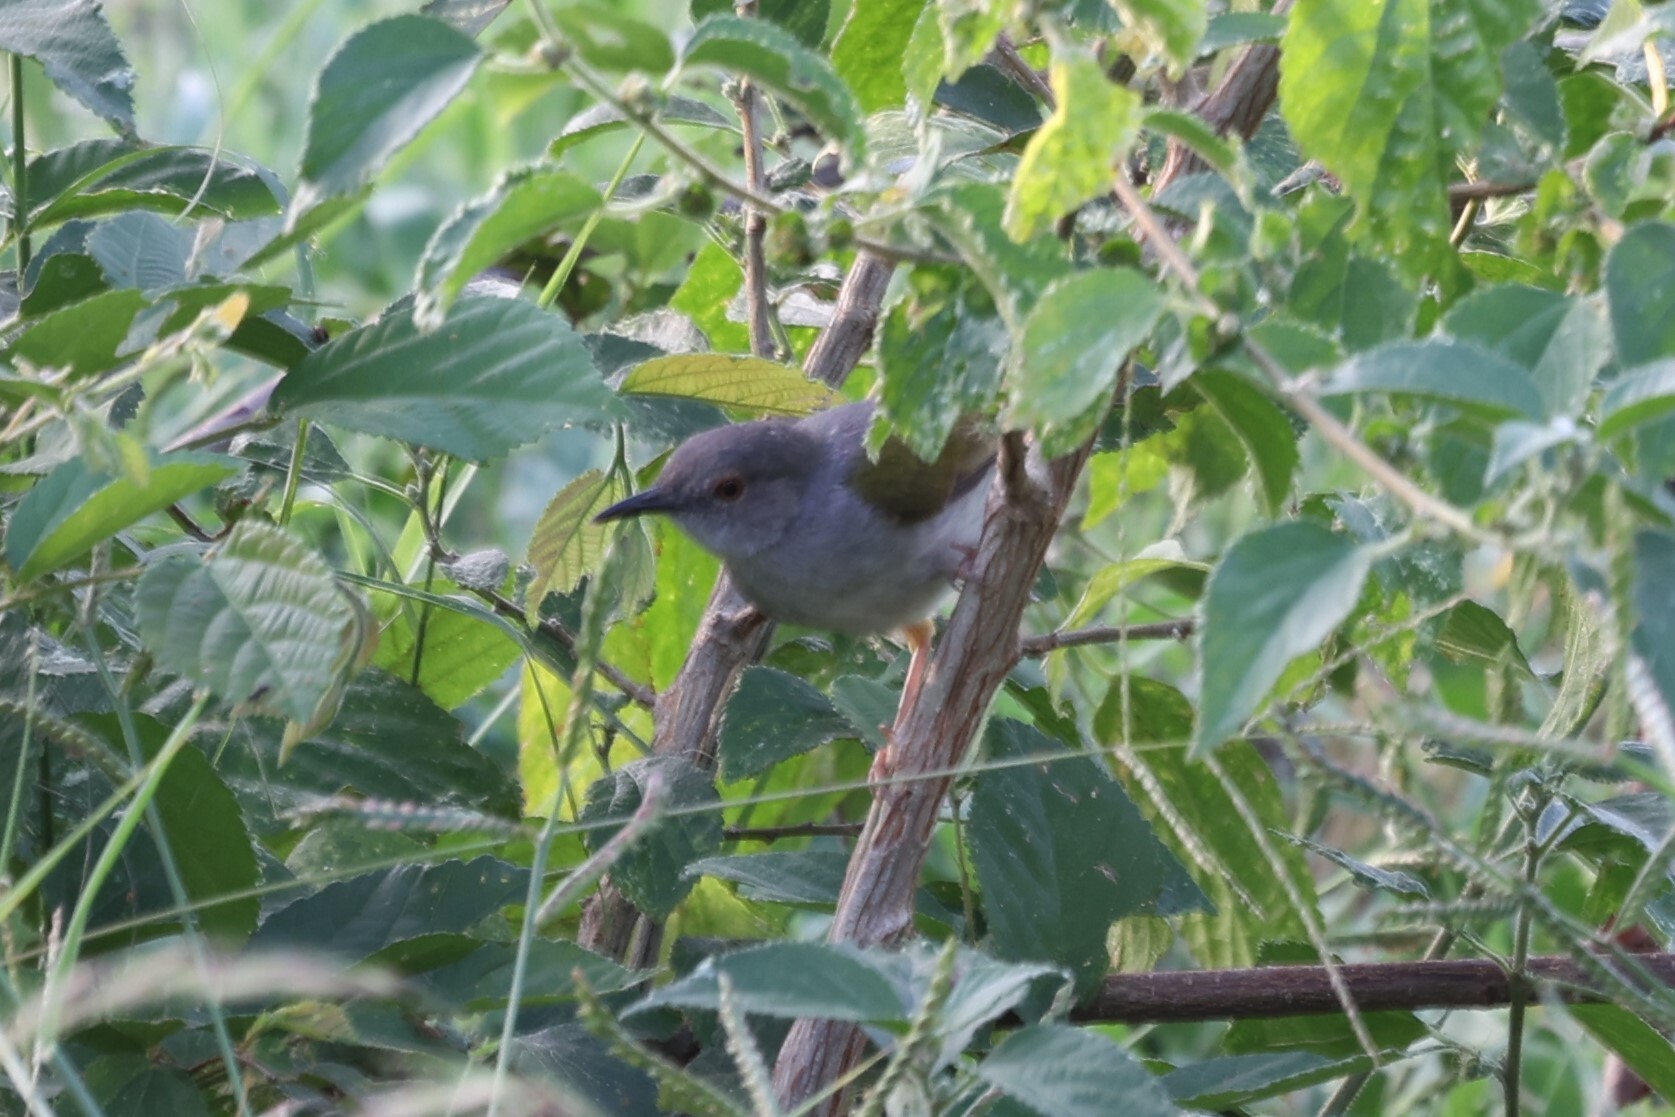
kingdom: Animalia
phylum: Chordata
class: Aves
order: Passeriformes
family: Cisticolidae
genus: Camaroptera
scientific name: Camaroptera brachyura
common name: Green-backed camaroptera
